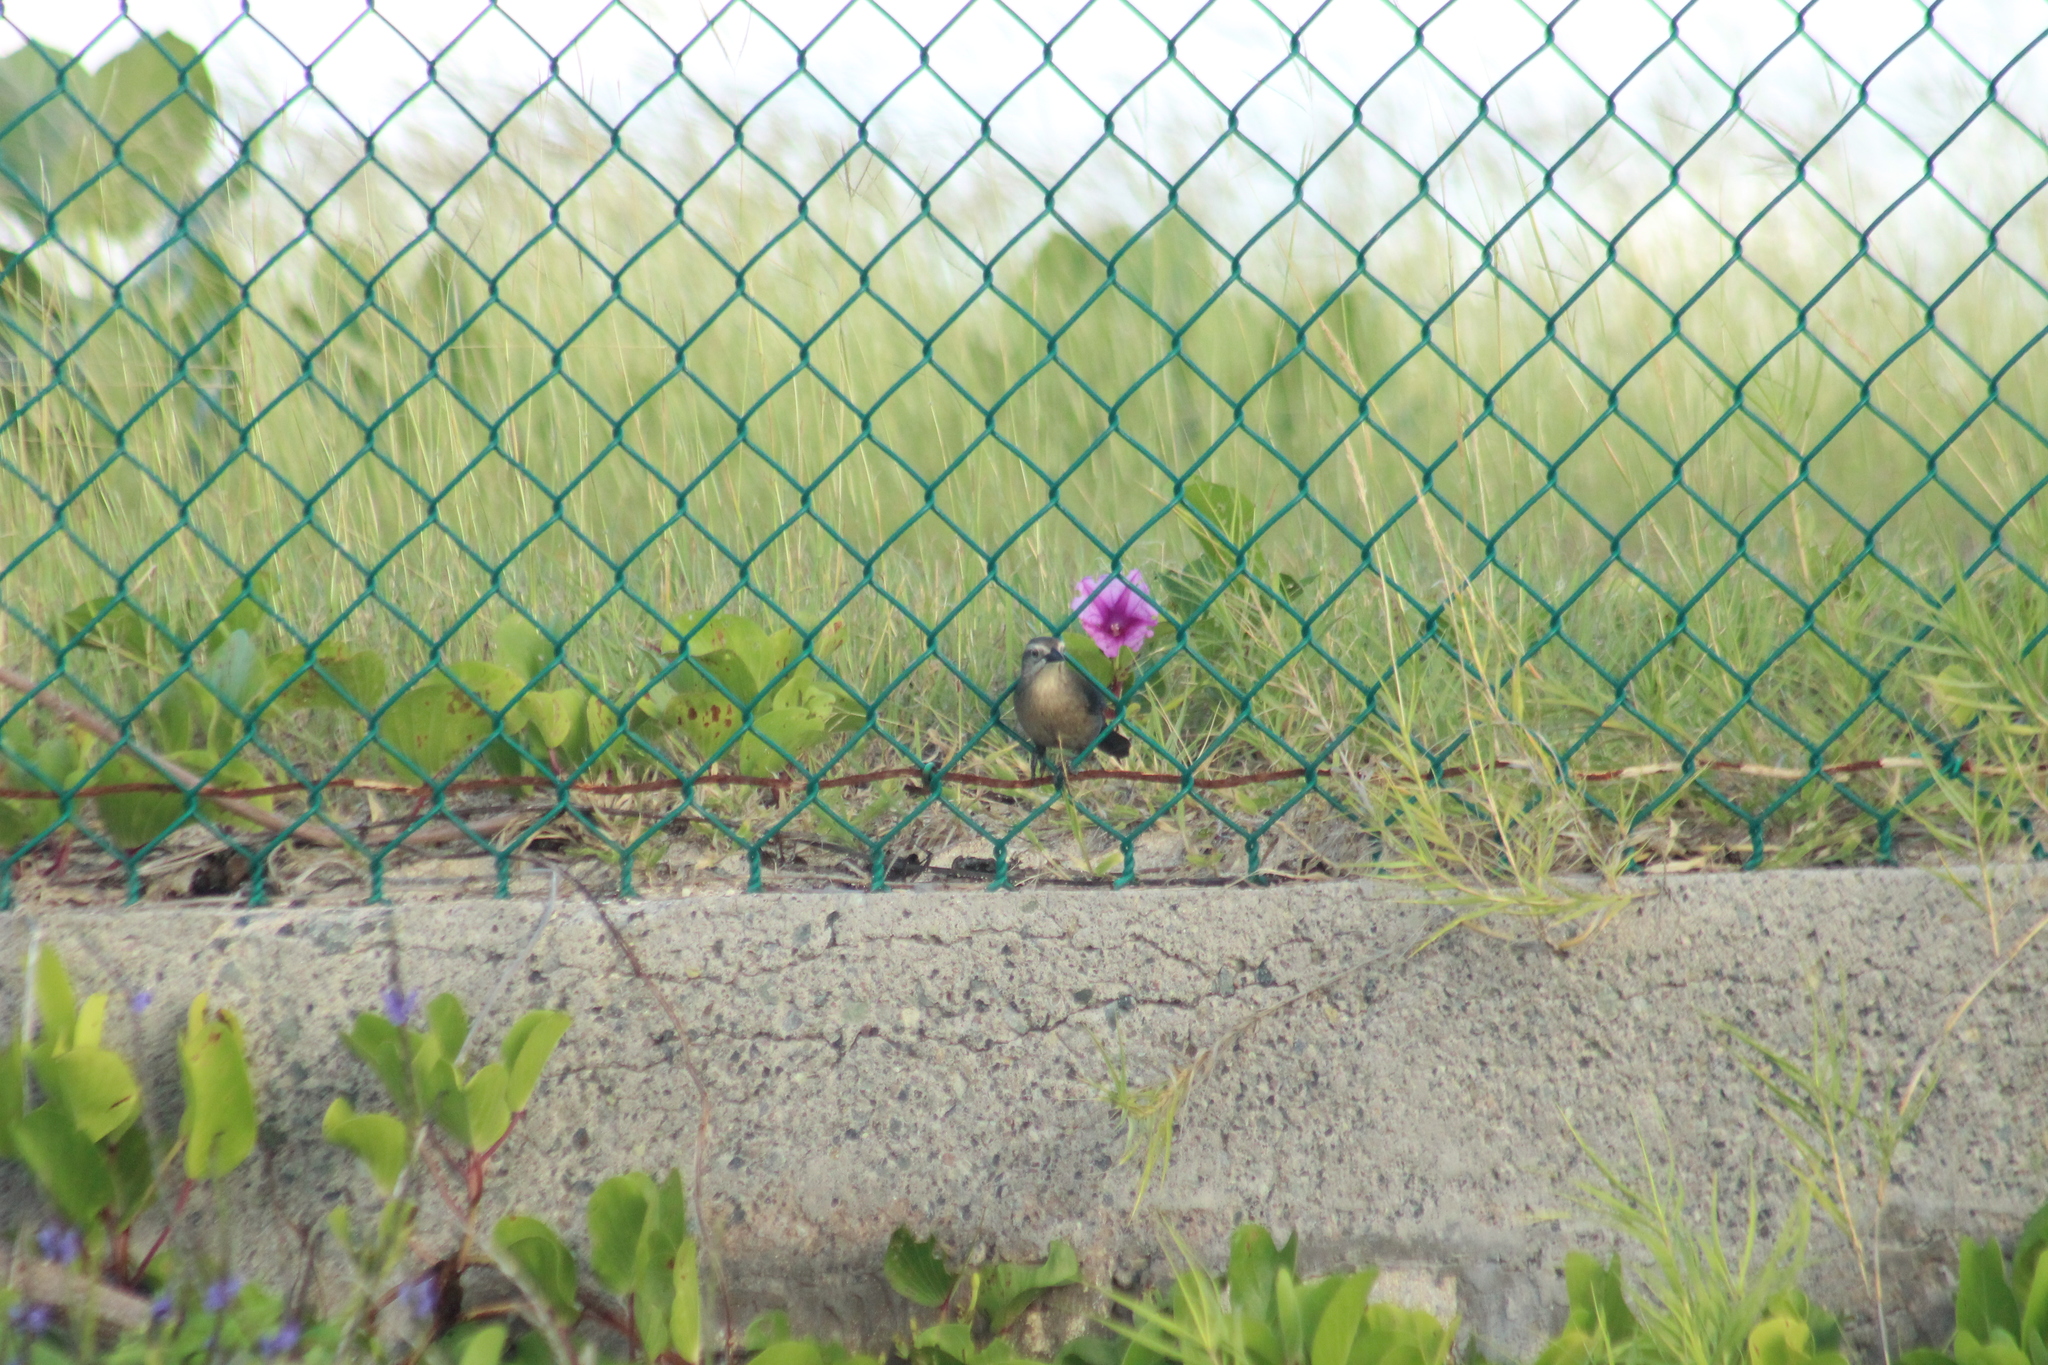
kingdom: Animalia
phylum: Chordata
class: Aves
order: Passeriformes
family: Icteridae
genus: Quiscalus
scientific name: Quiscalus lugubris
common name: Carib grackle
